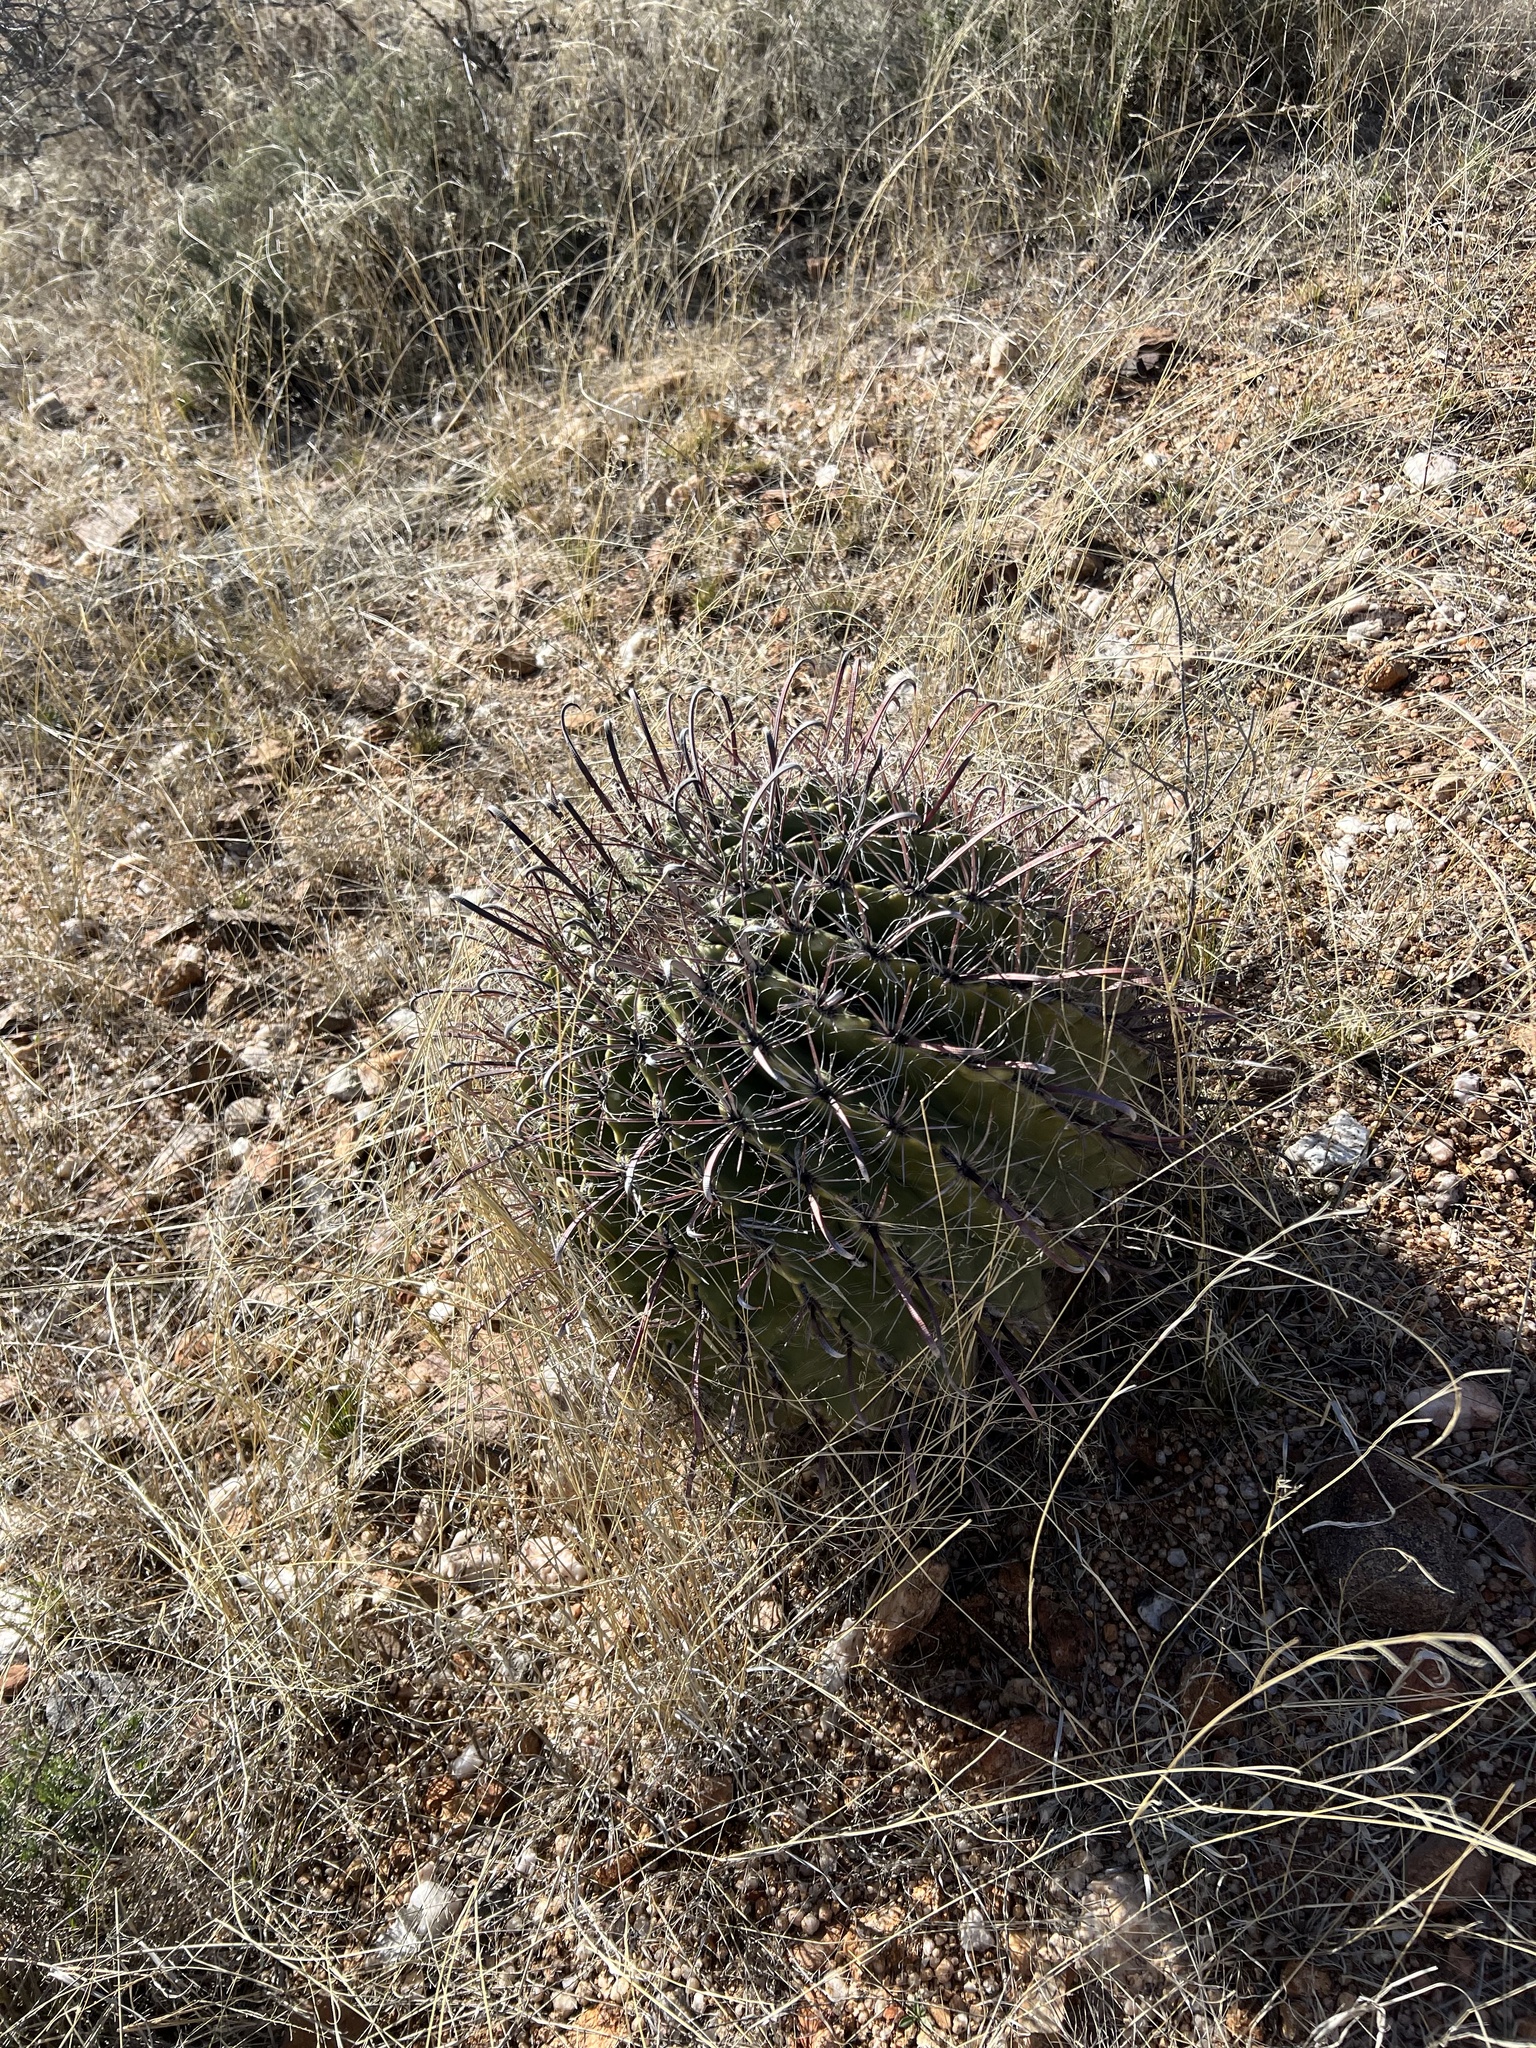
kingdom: Plantae
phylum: Tracheophyta
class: Magnoliopsida
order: Caryophyllales
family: Cactaceae
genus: Ferocactus
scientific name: Ferocactus wislizeni
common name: Candy barrel cactus
